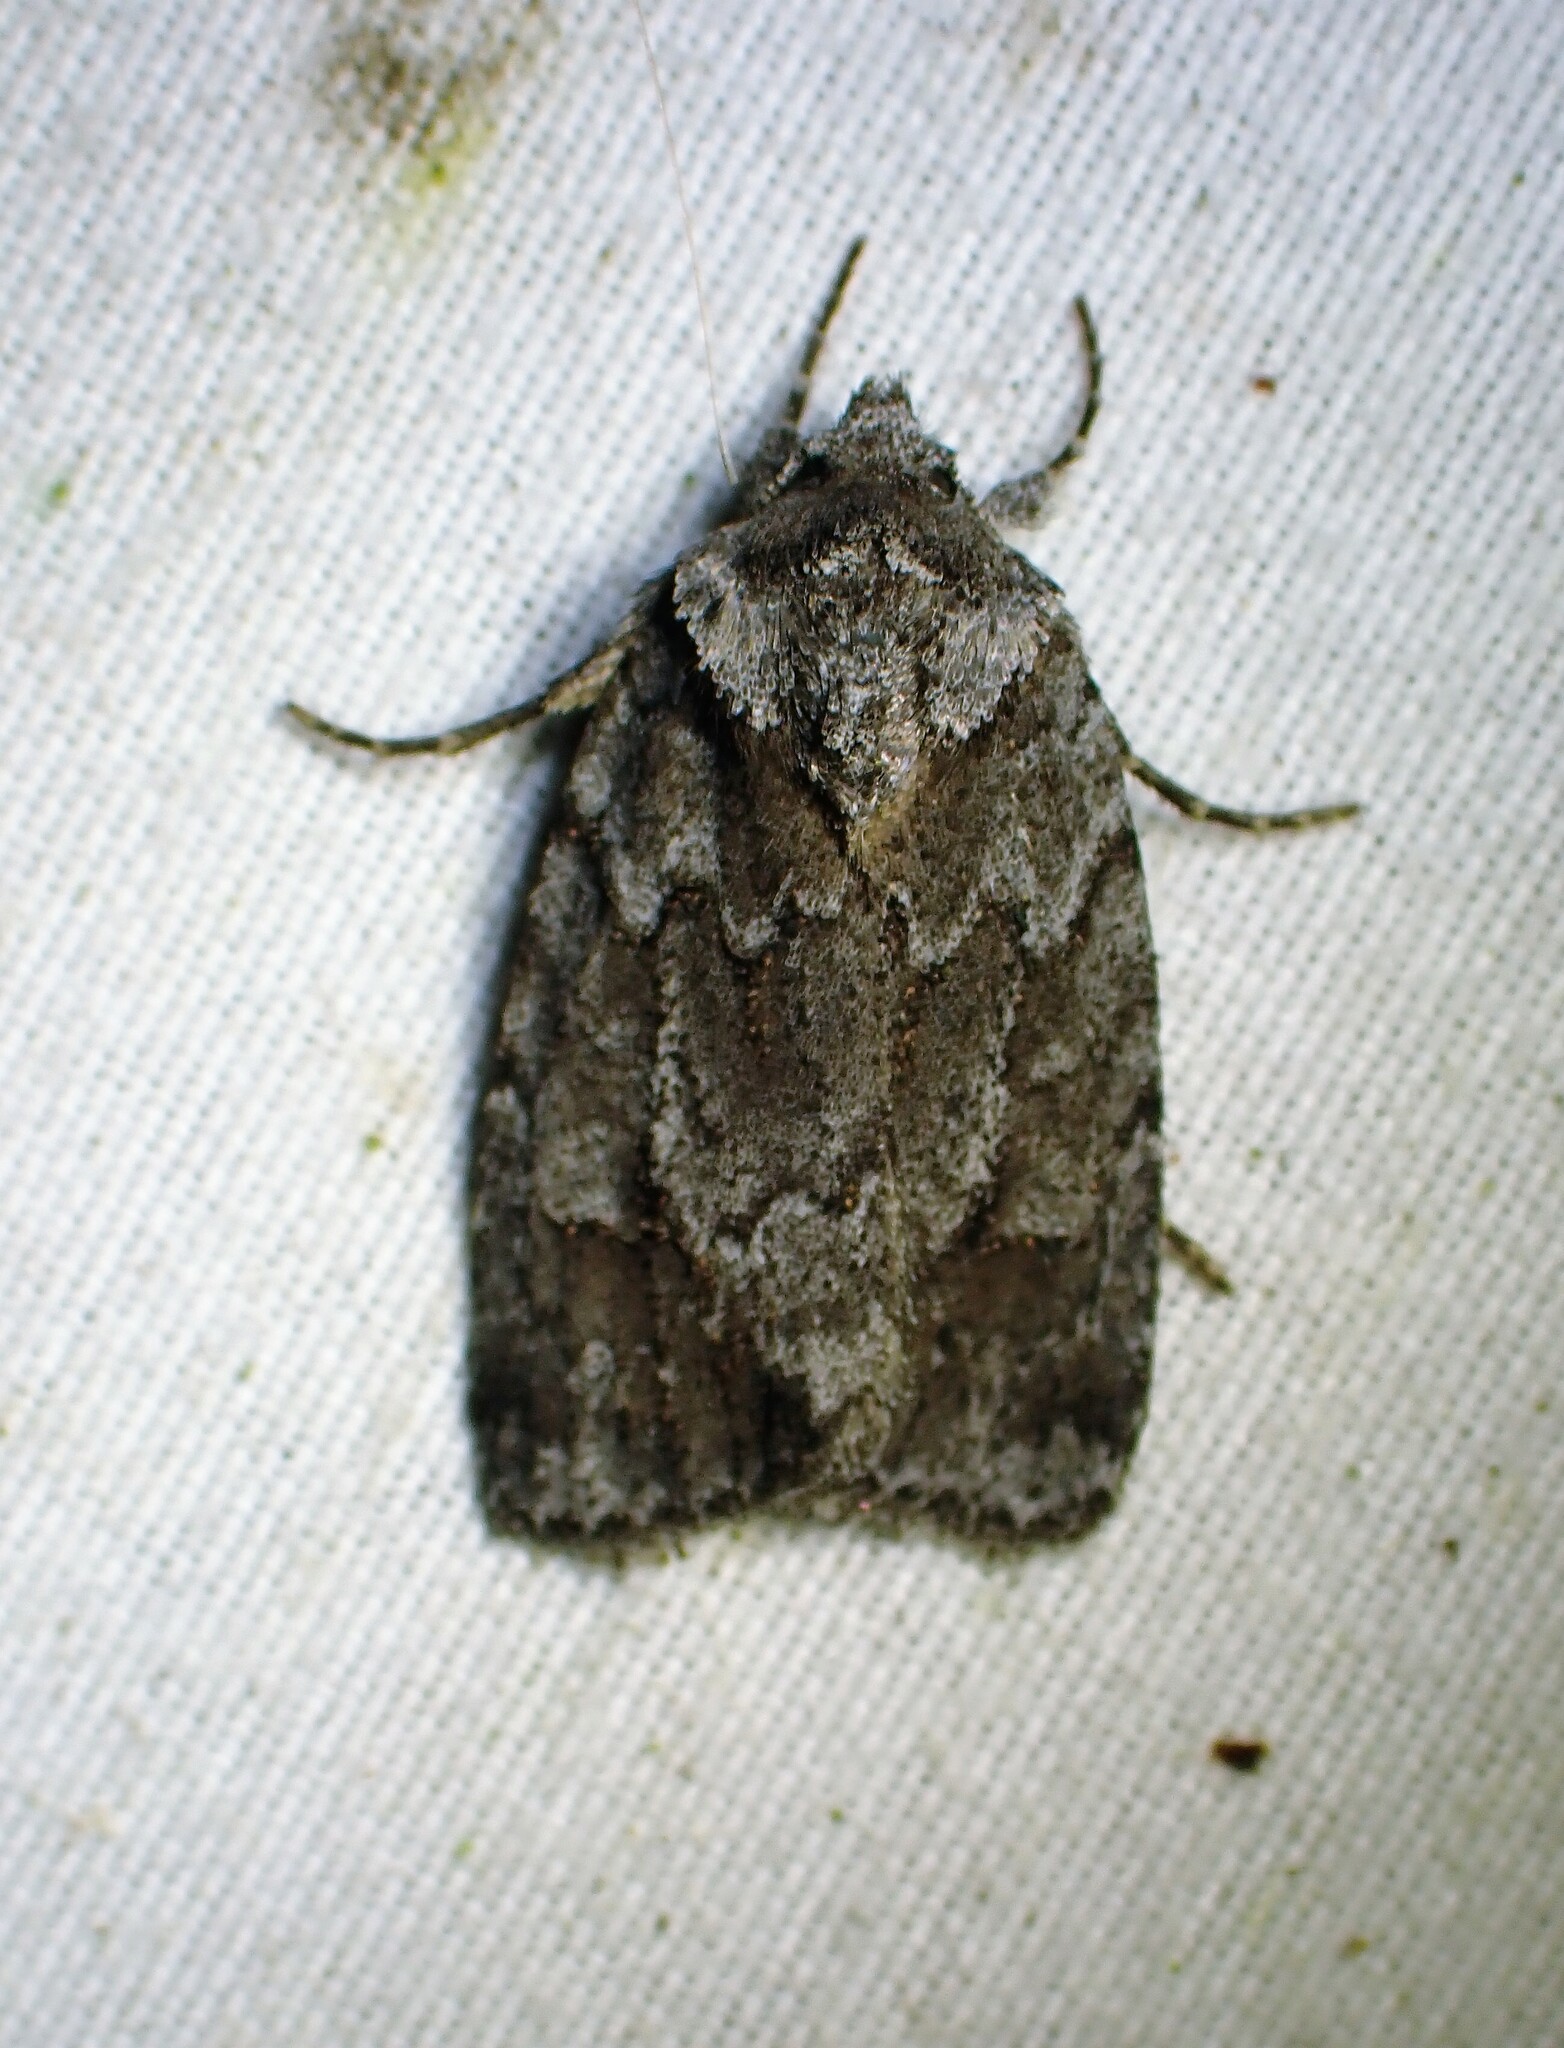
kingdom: Animalia
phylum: Arthropoda
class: Insecta
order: Lepidoptera
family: Noctuidae
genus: Sympistis
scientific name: Sympistis dentata
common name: Blueberry sallow
